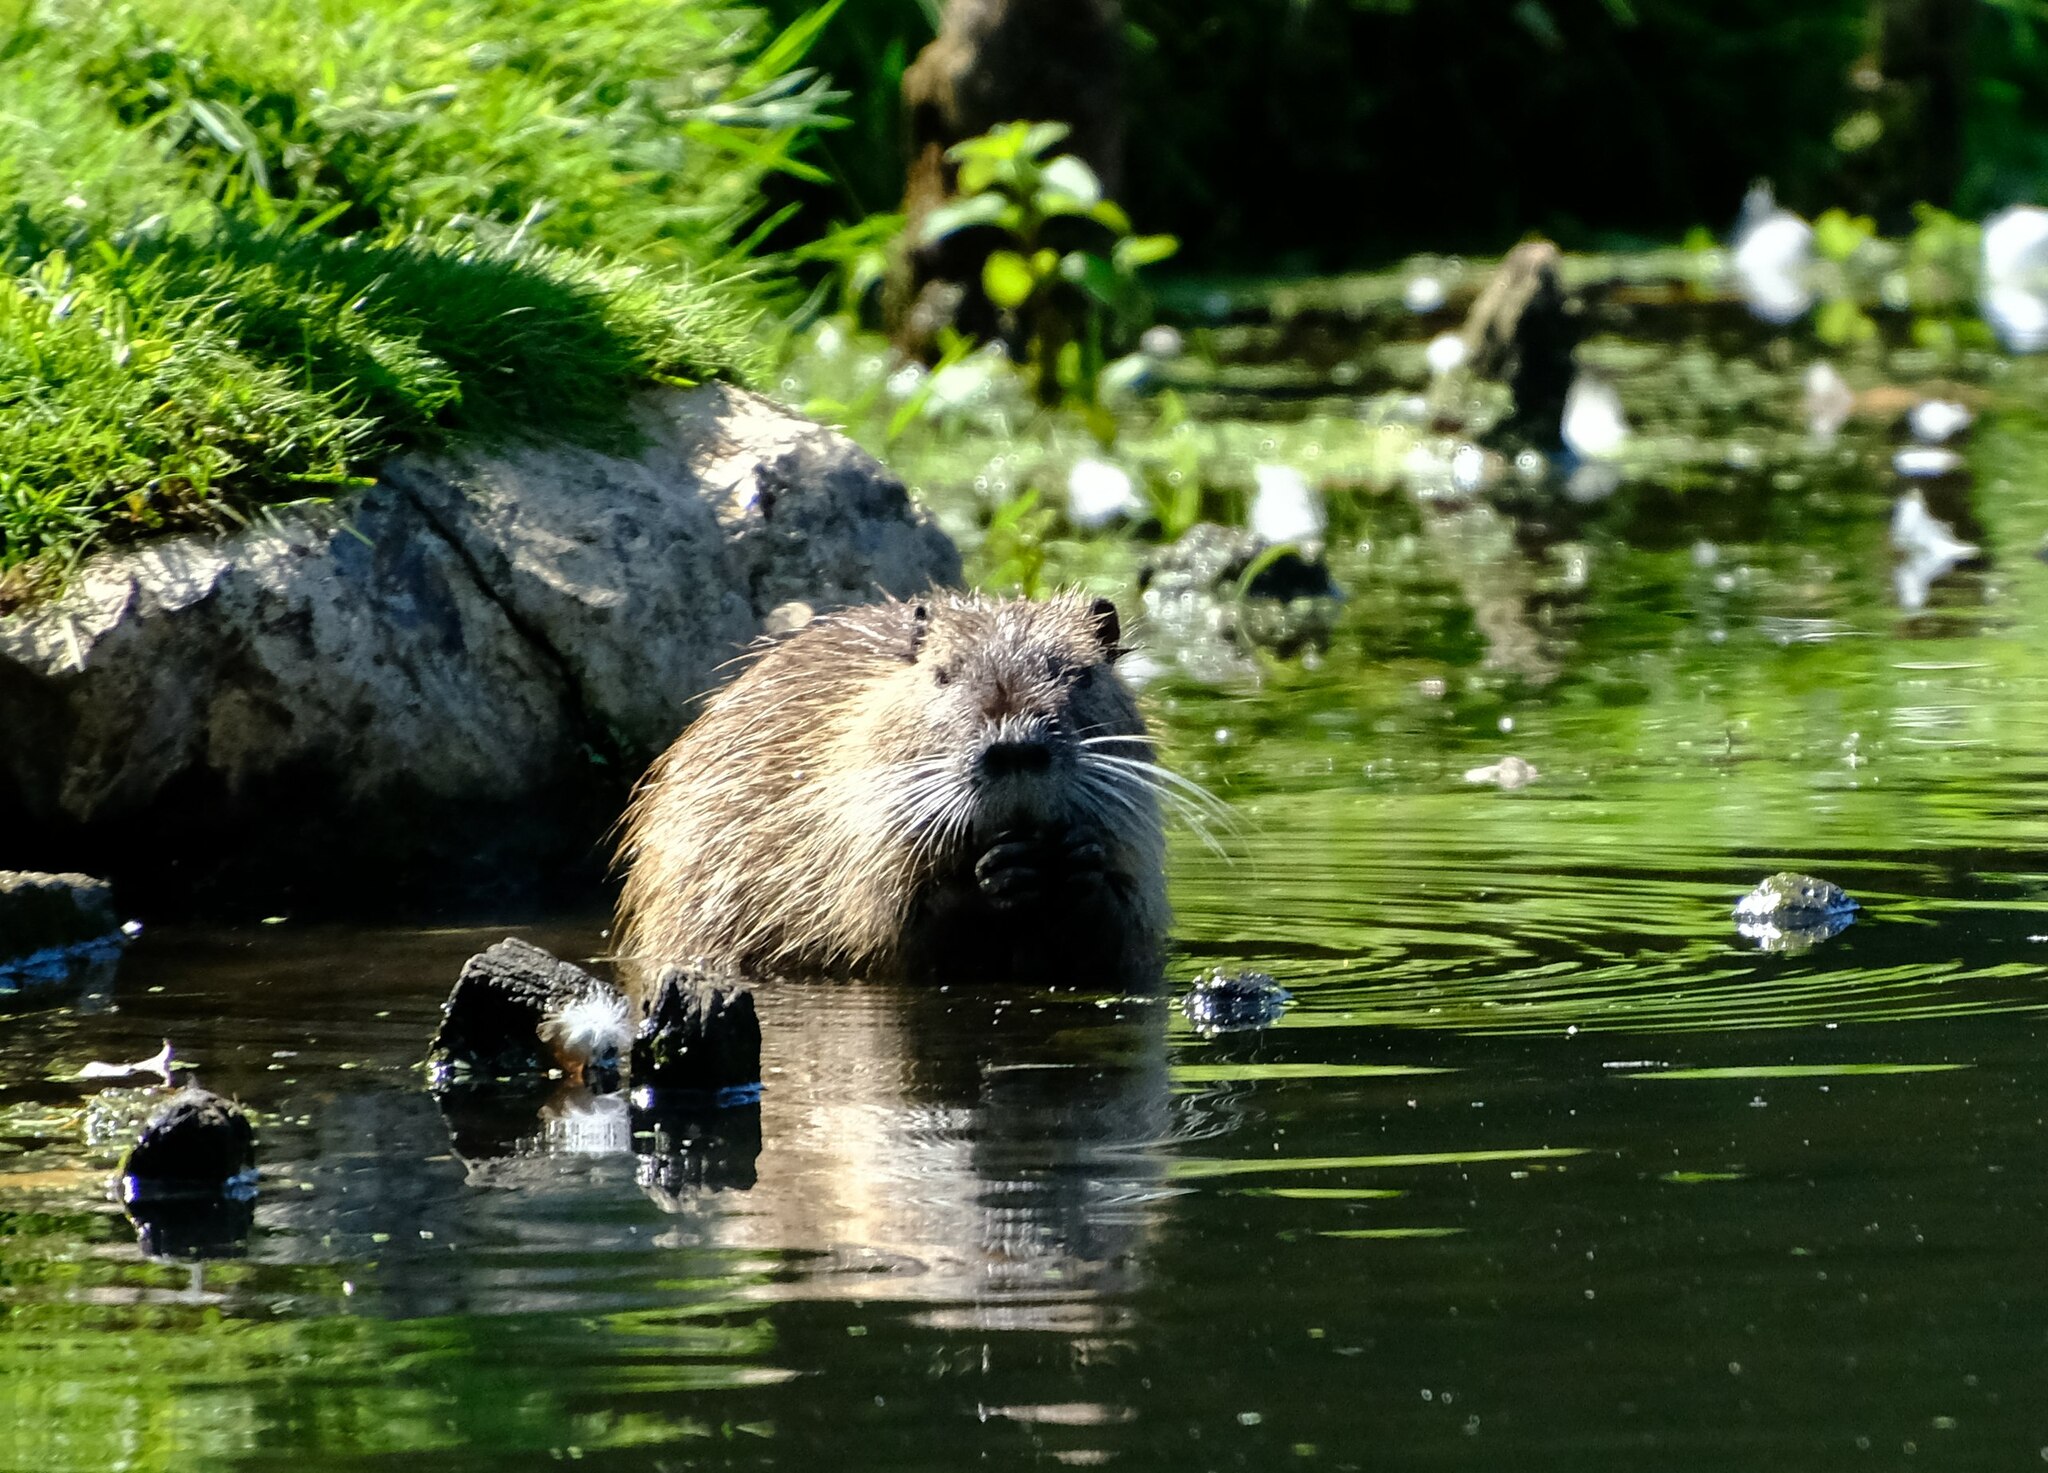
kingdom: Animalia
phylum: Chordata
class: Mammalia
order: Rodentia
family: Myocastoridae
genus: Myocastor
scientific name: Myocastor coypus
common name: Coypu
